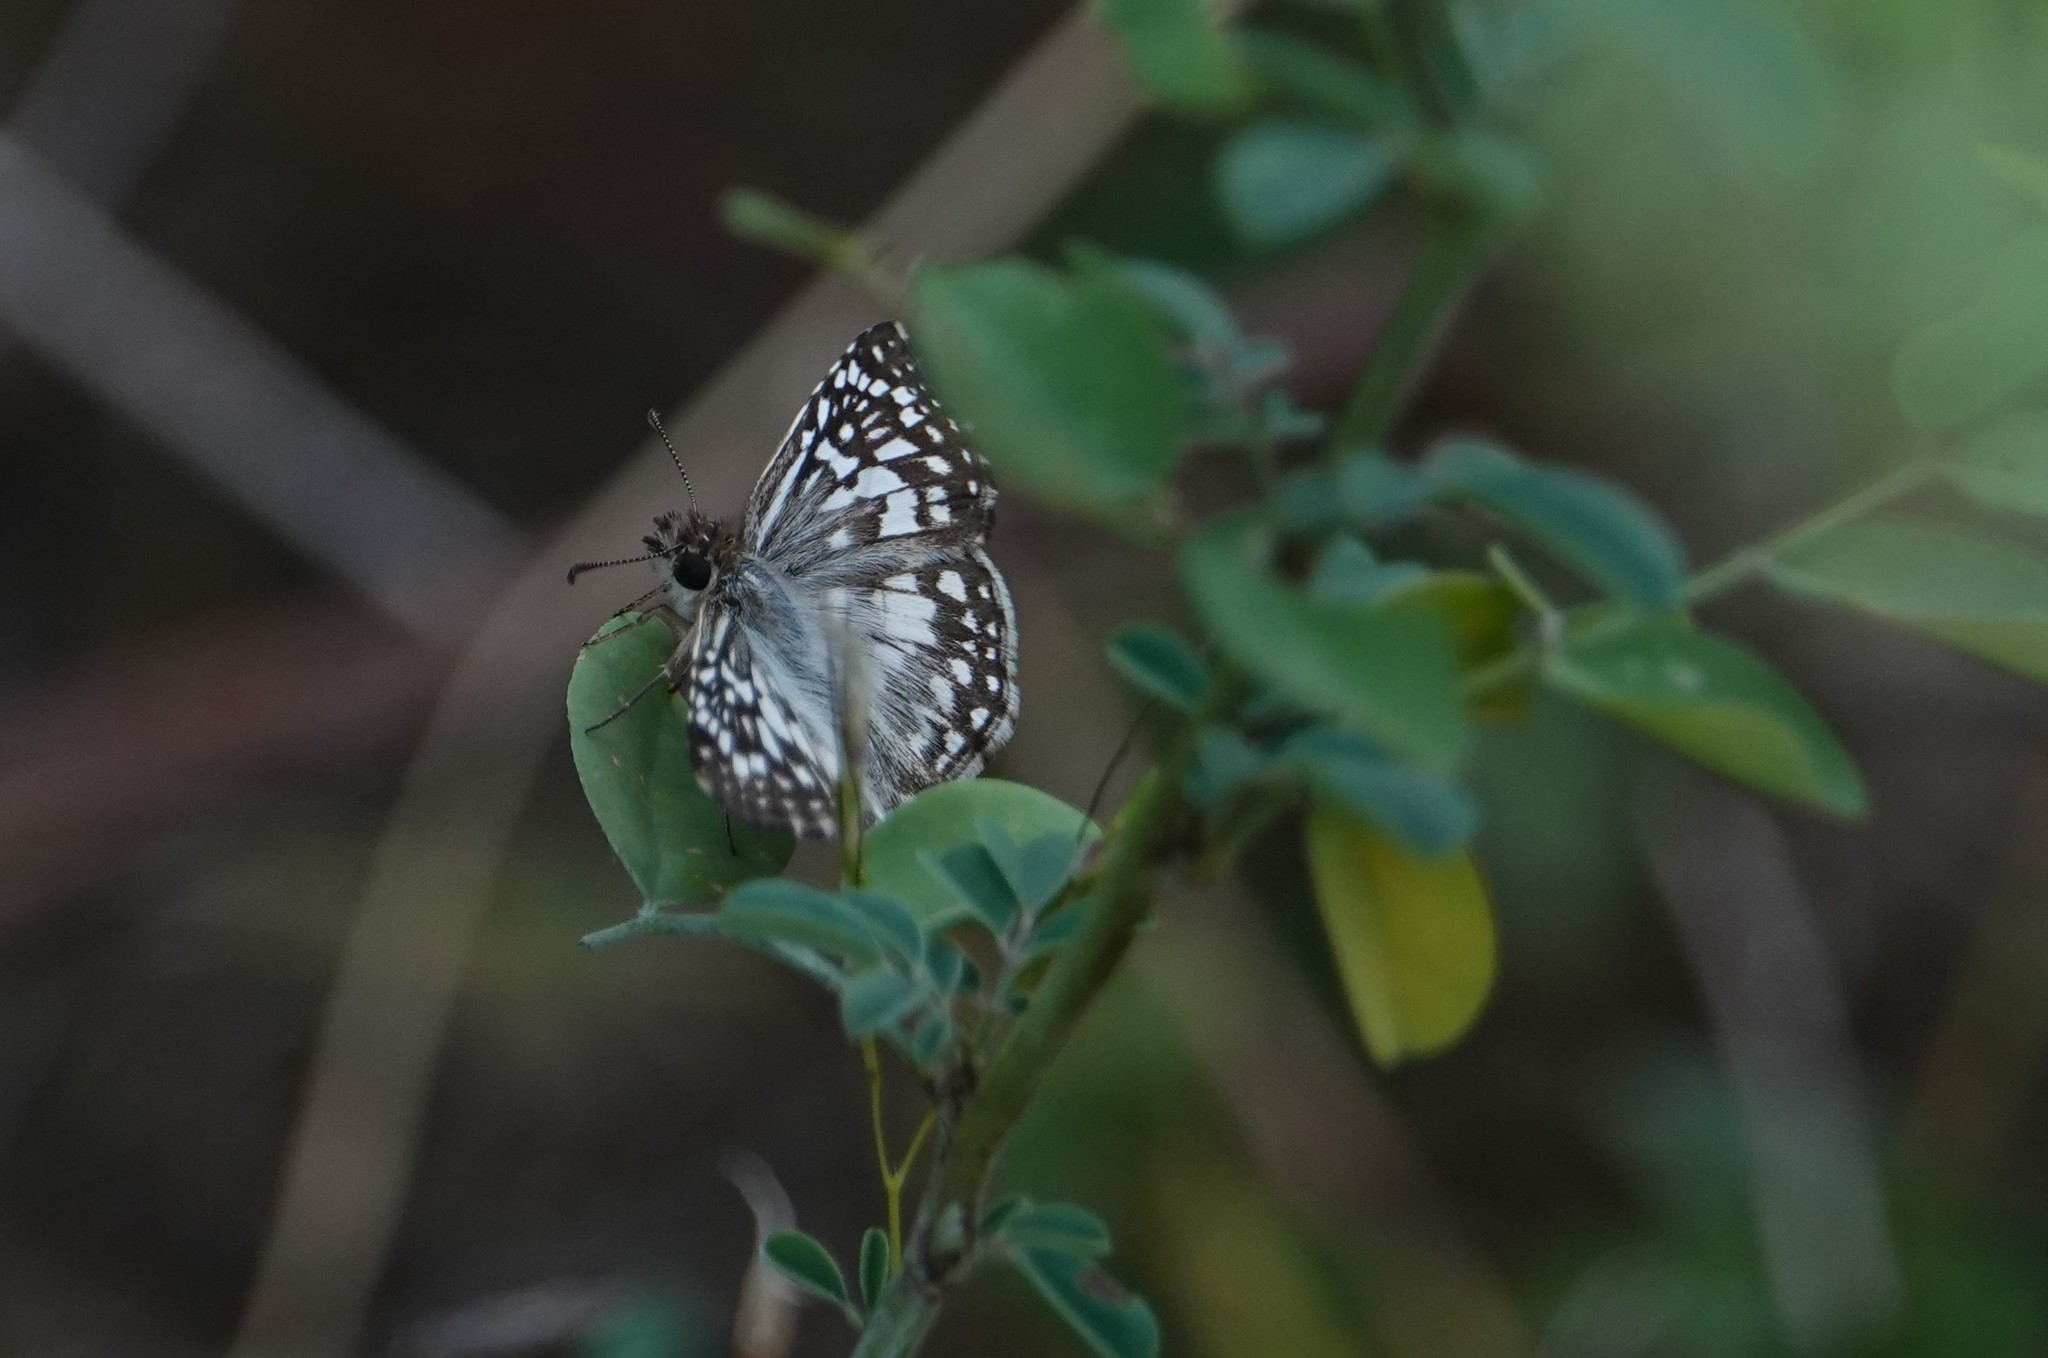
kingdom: Animalia
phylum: Arthropoda
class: Insecta
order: Lepidoptera
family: Hesperiidae
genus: Pyrgus
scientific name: Pyrgus oileus
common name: Tropical checkered-skipper
